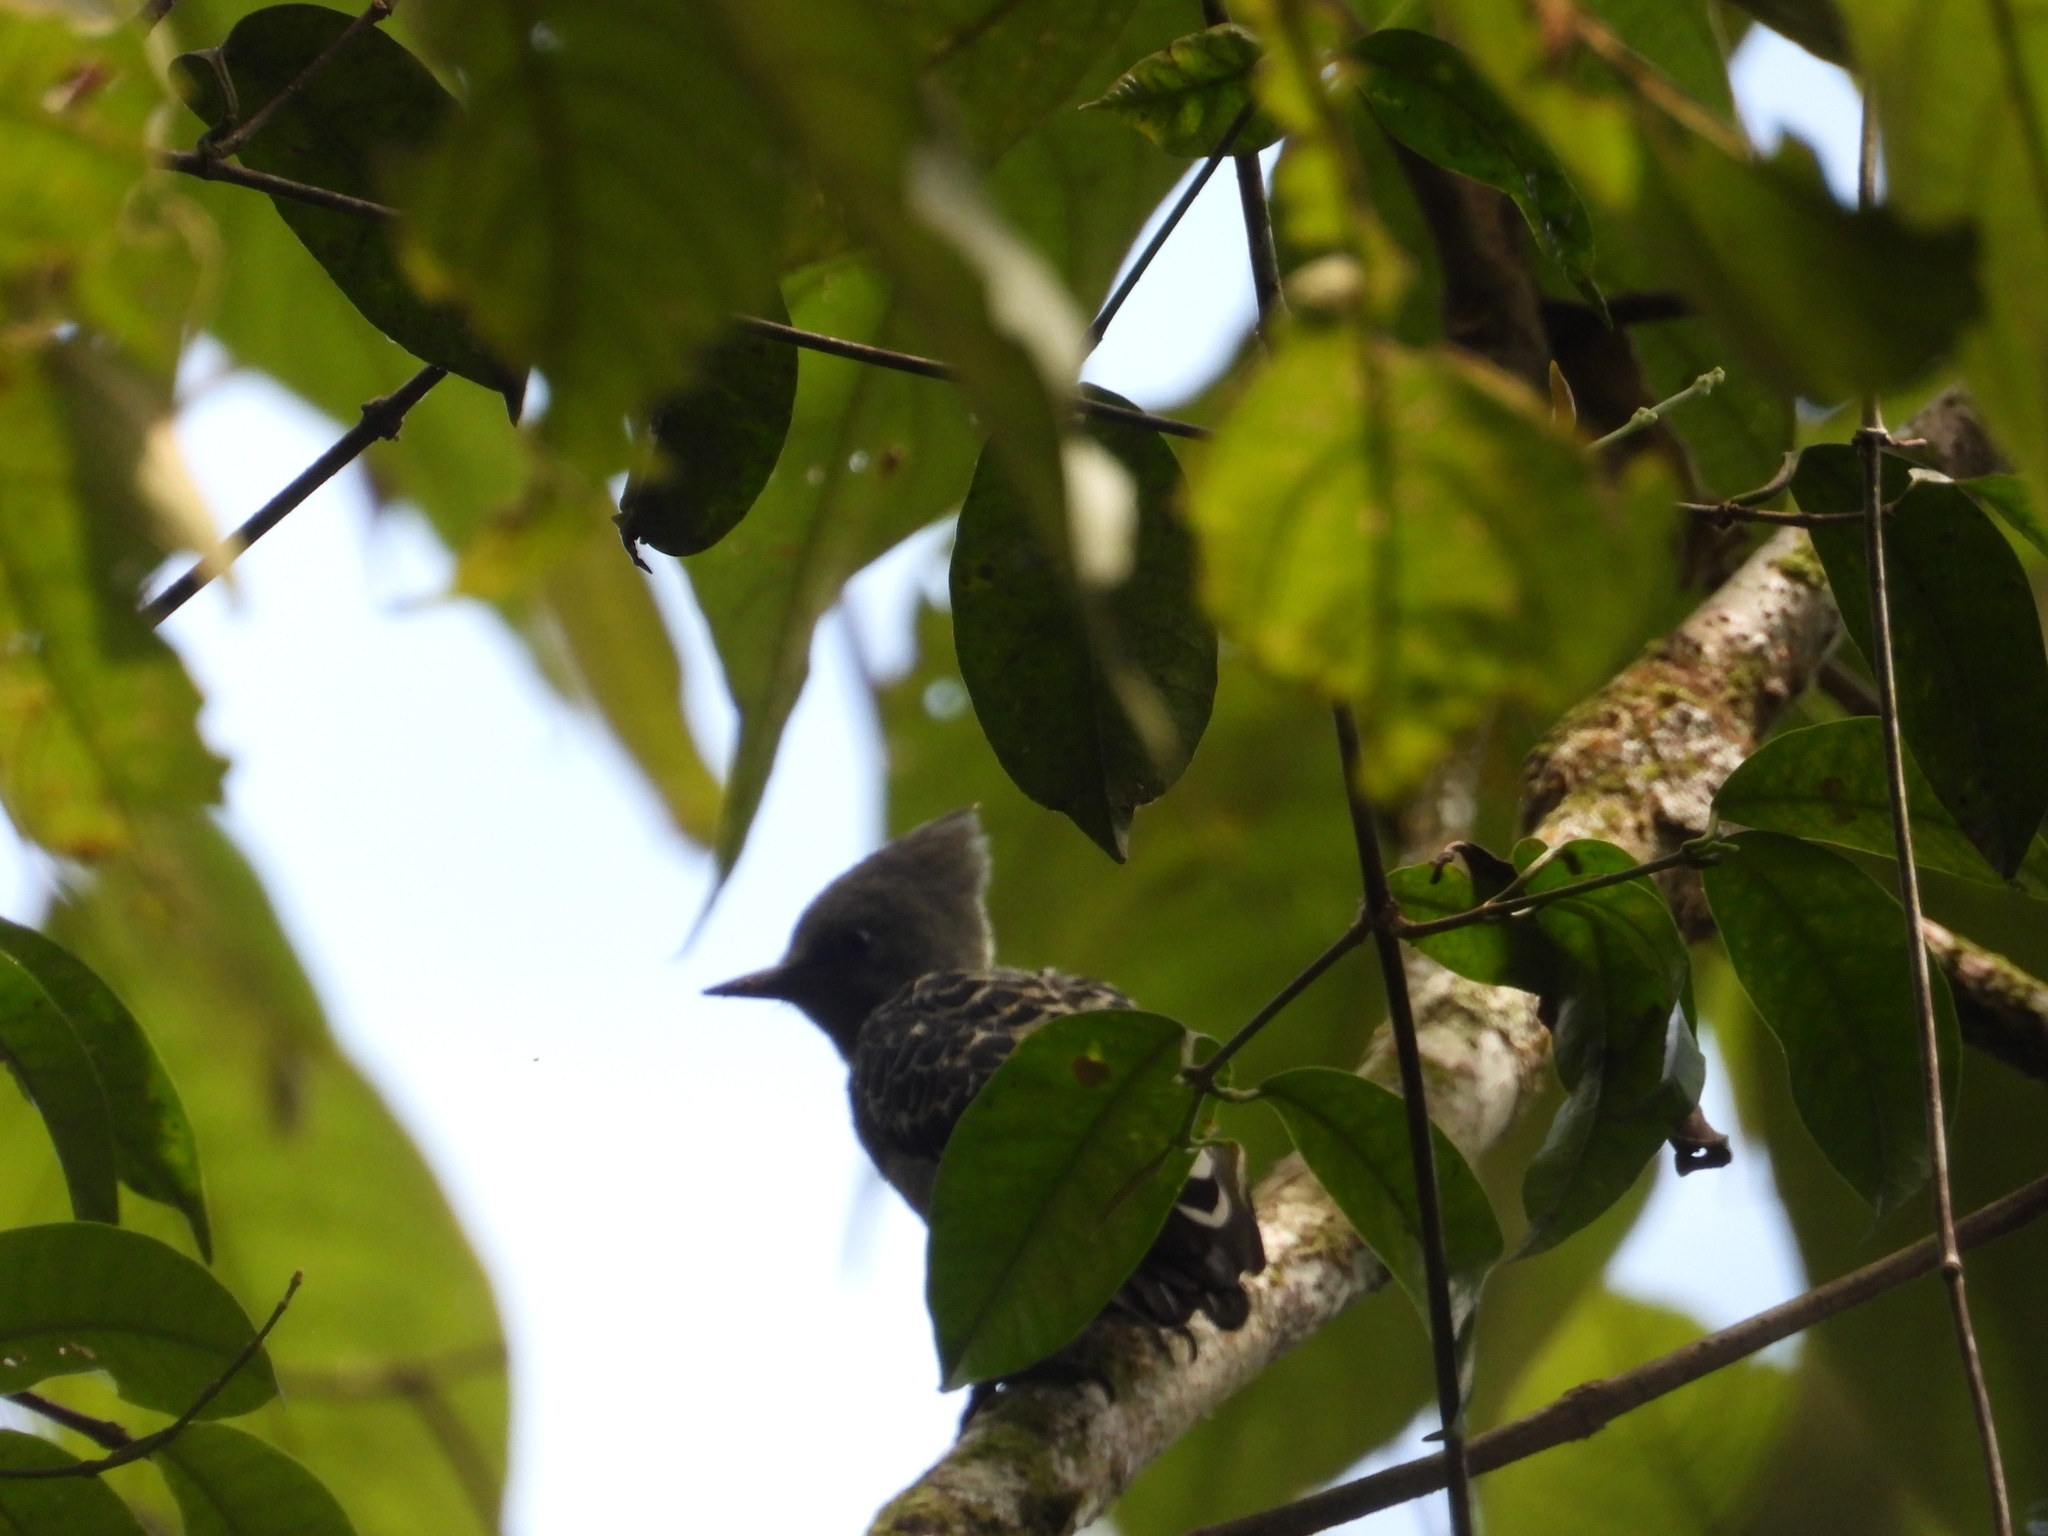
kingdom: Animalia
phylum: Chordata
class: Aves
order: Piciformes
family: Picidae
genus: Hemicircus
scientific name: Hemicircus concretus
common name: Grey-and-buff woodpecker
